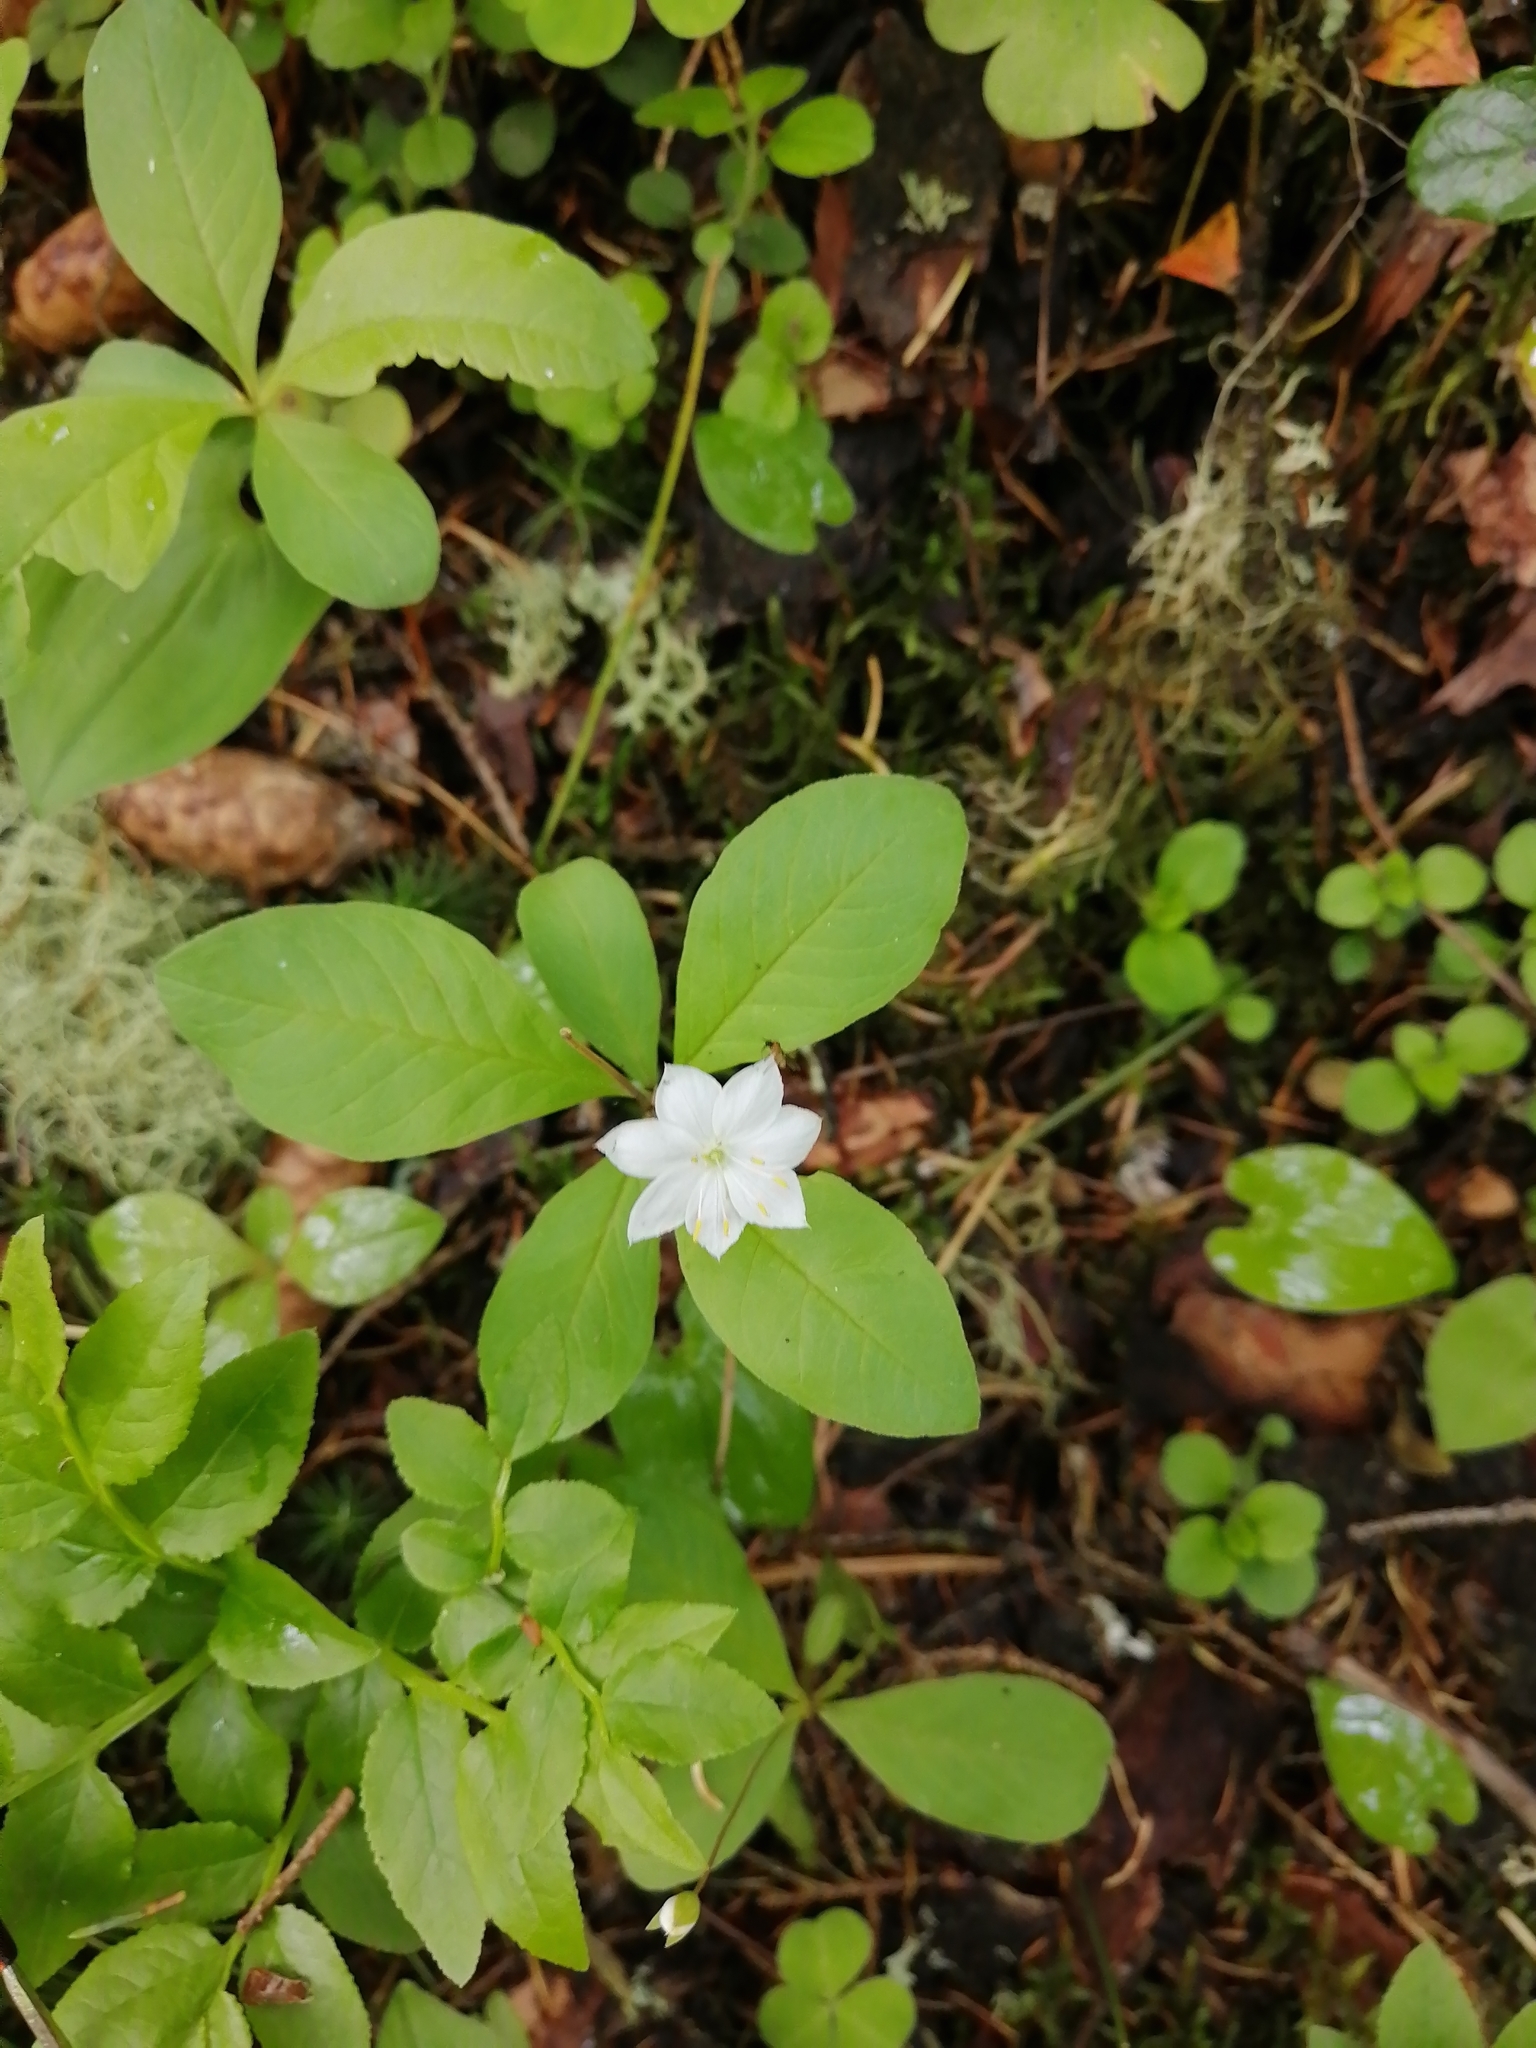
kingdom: Plantae
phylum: Tracheophyta
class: Magnoliopsida
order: Ericales
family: Primulaceae
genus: Lysimachia
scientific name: Lysimachia europaea
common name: Arctic starflower
